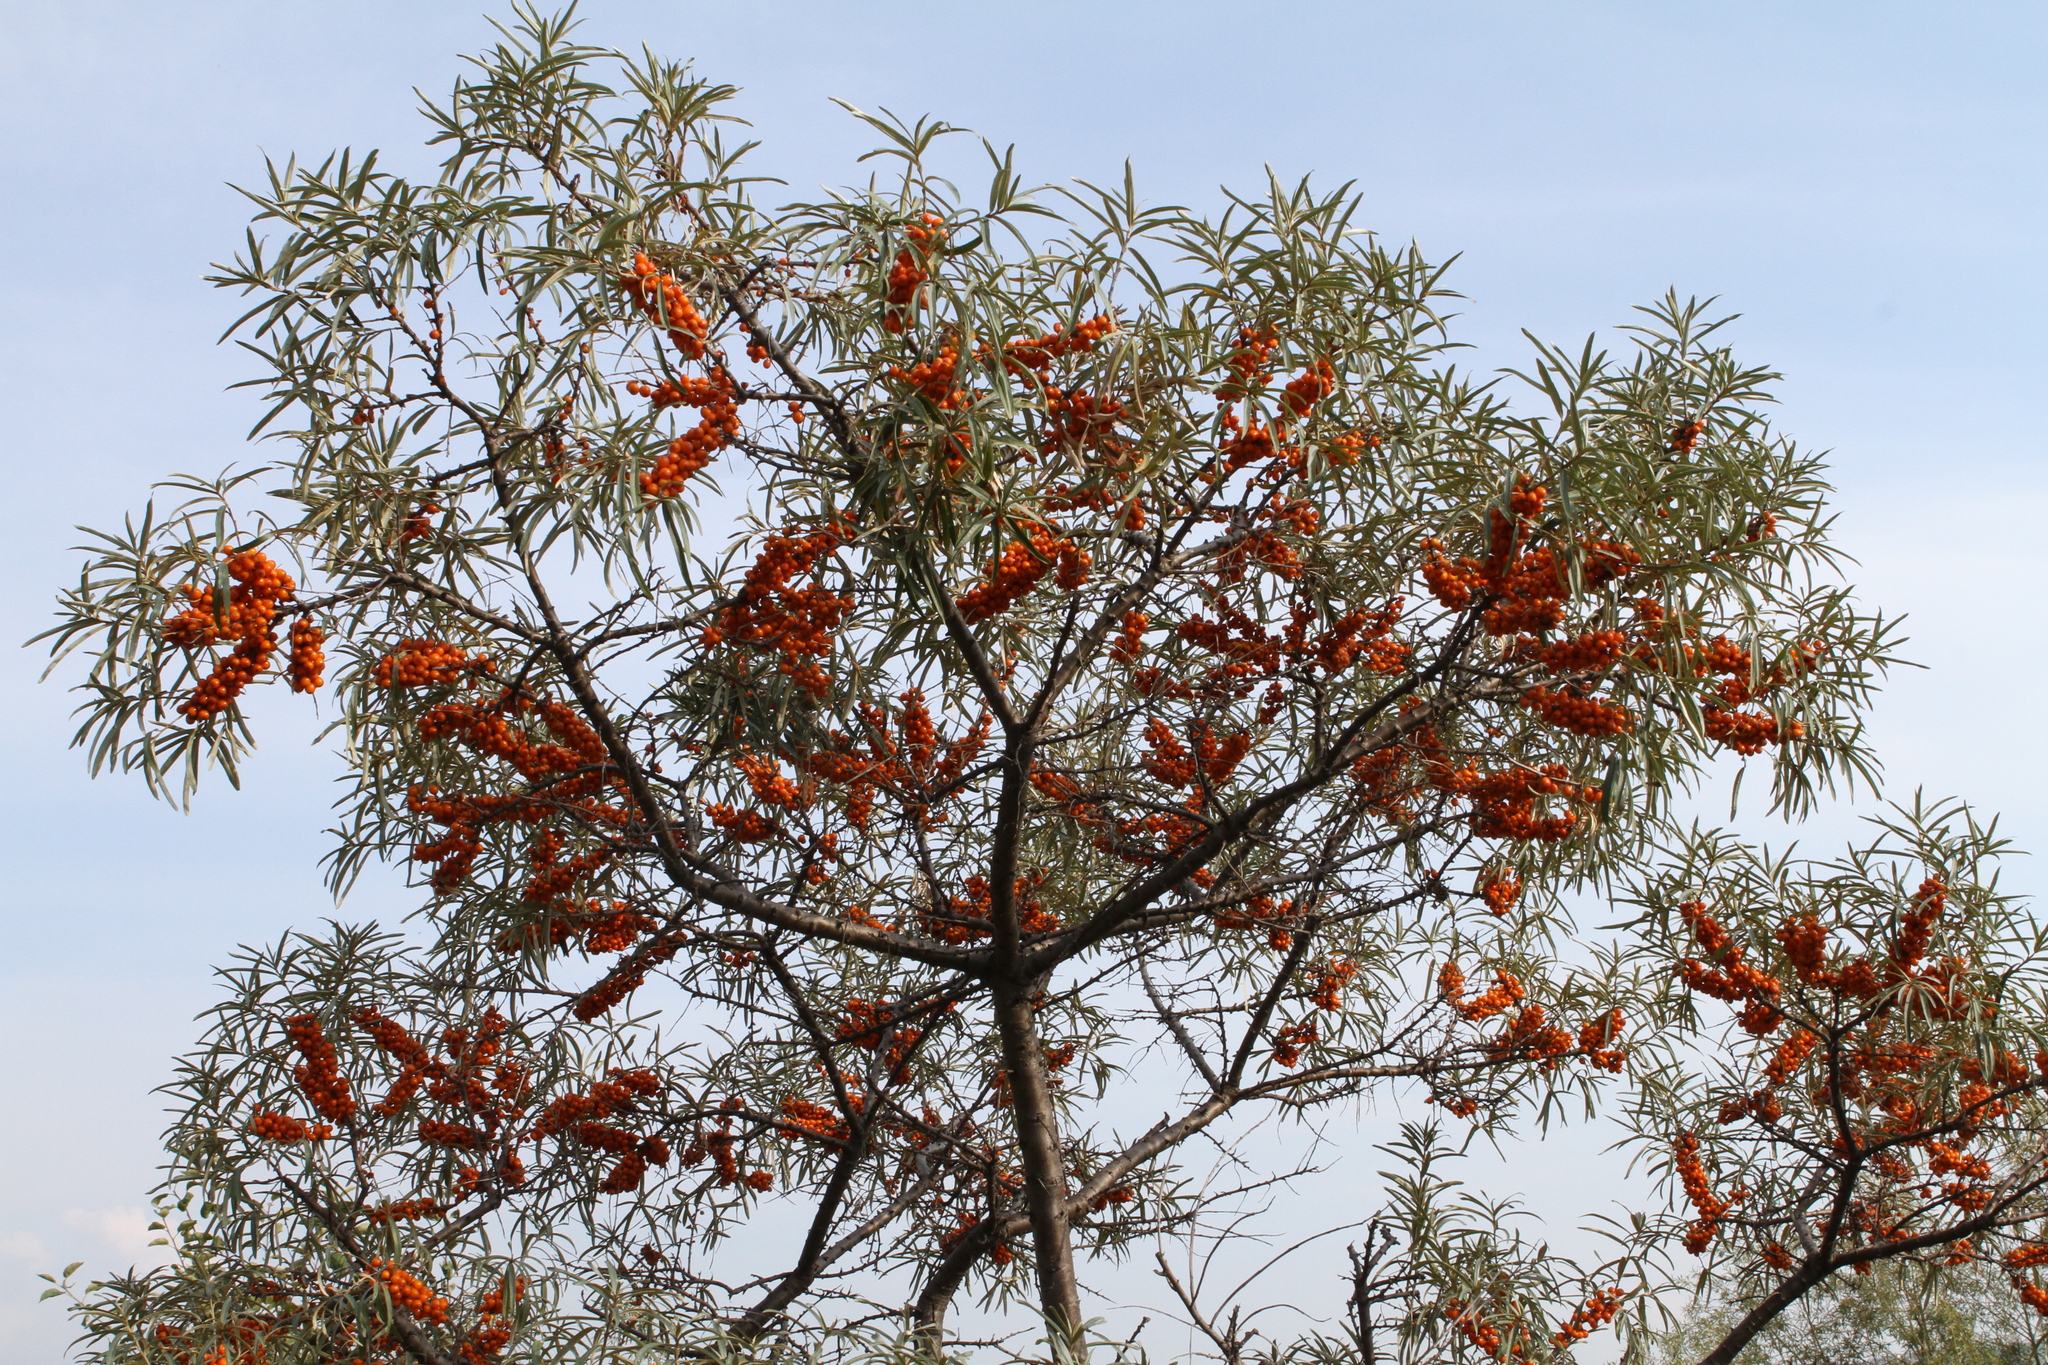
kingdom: Plantae
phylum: Tracheophyta
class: Magnoliopsida
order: Rosales
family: Elaeagnaceae
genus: Hippophae
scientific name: Hippophae rhamnoides
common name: Sea-buckthorn
